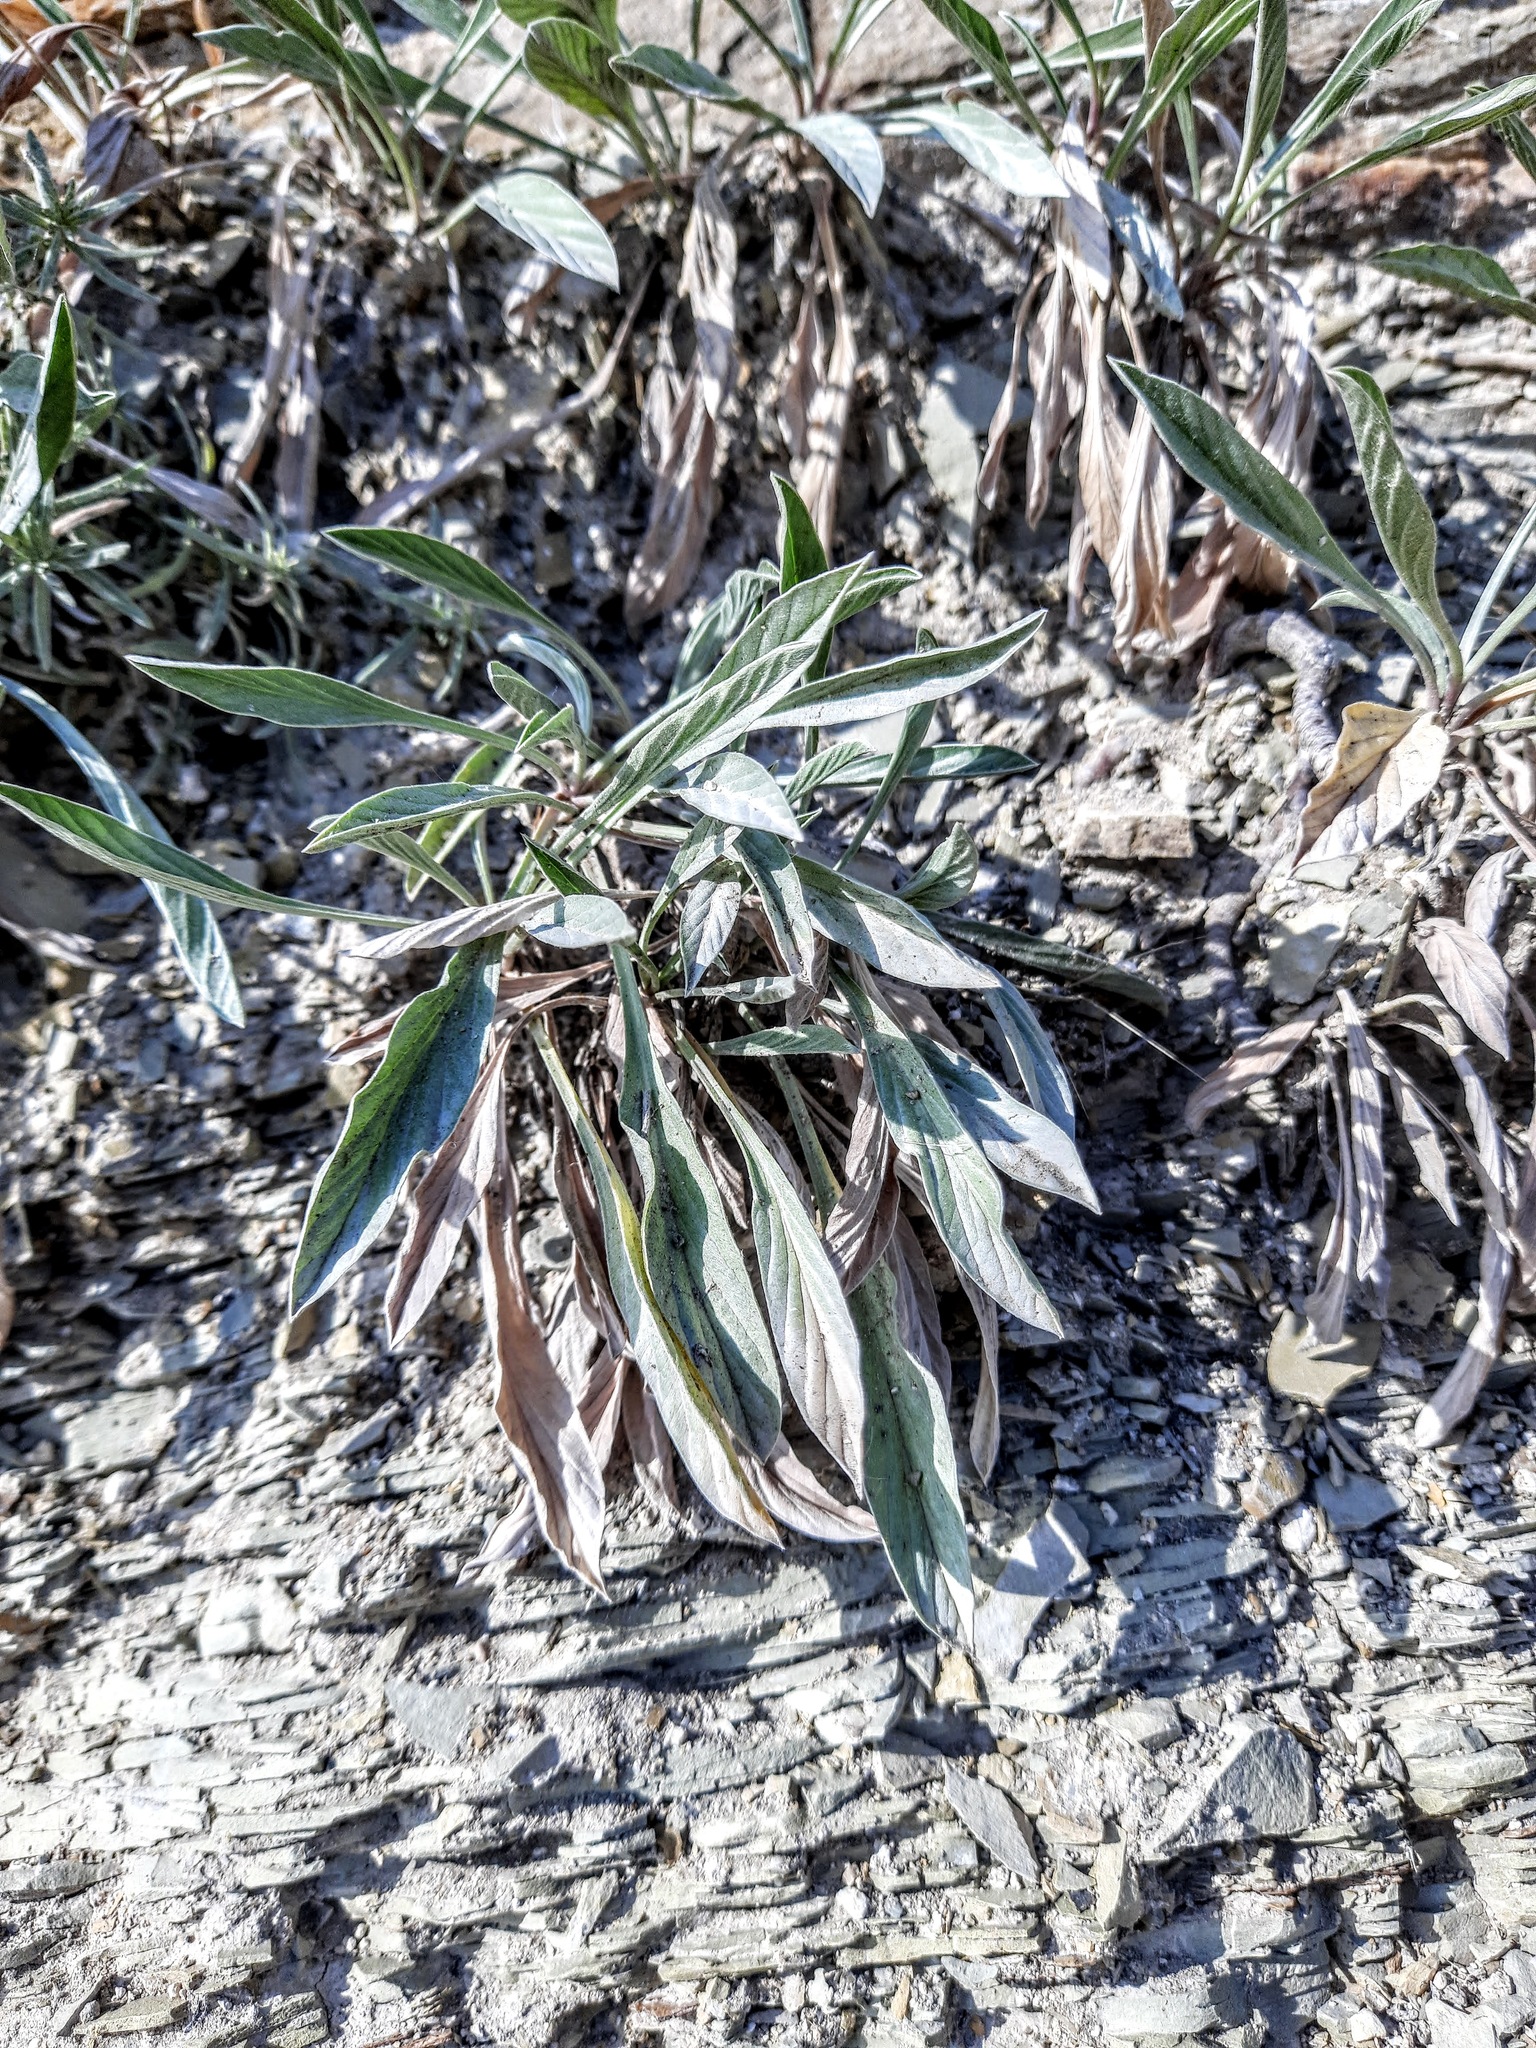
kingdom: Plantae
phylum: Tracheophyta
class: Magnoliopsida
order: Solanales
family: Convolvulaceae
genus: Convolvulus
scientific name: Convolvulus lineatus
